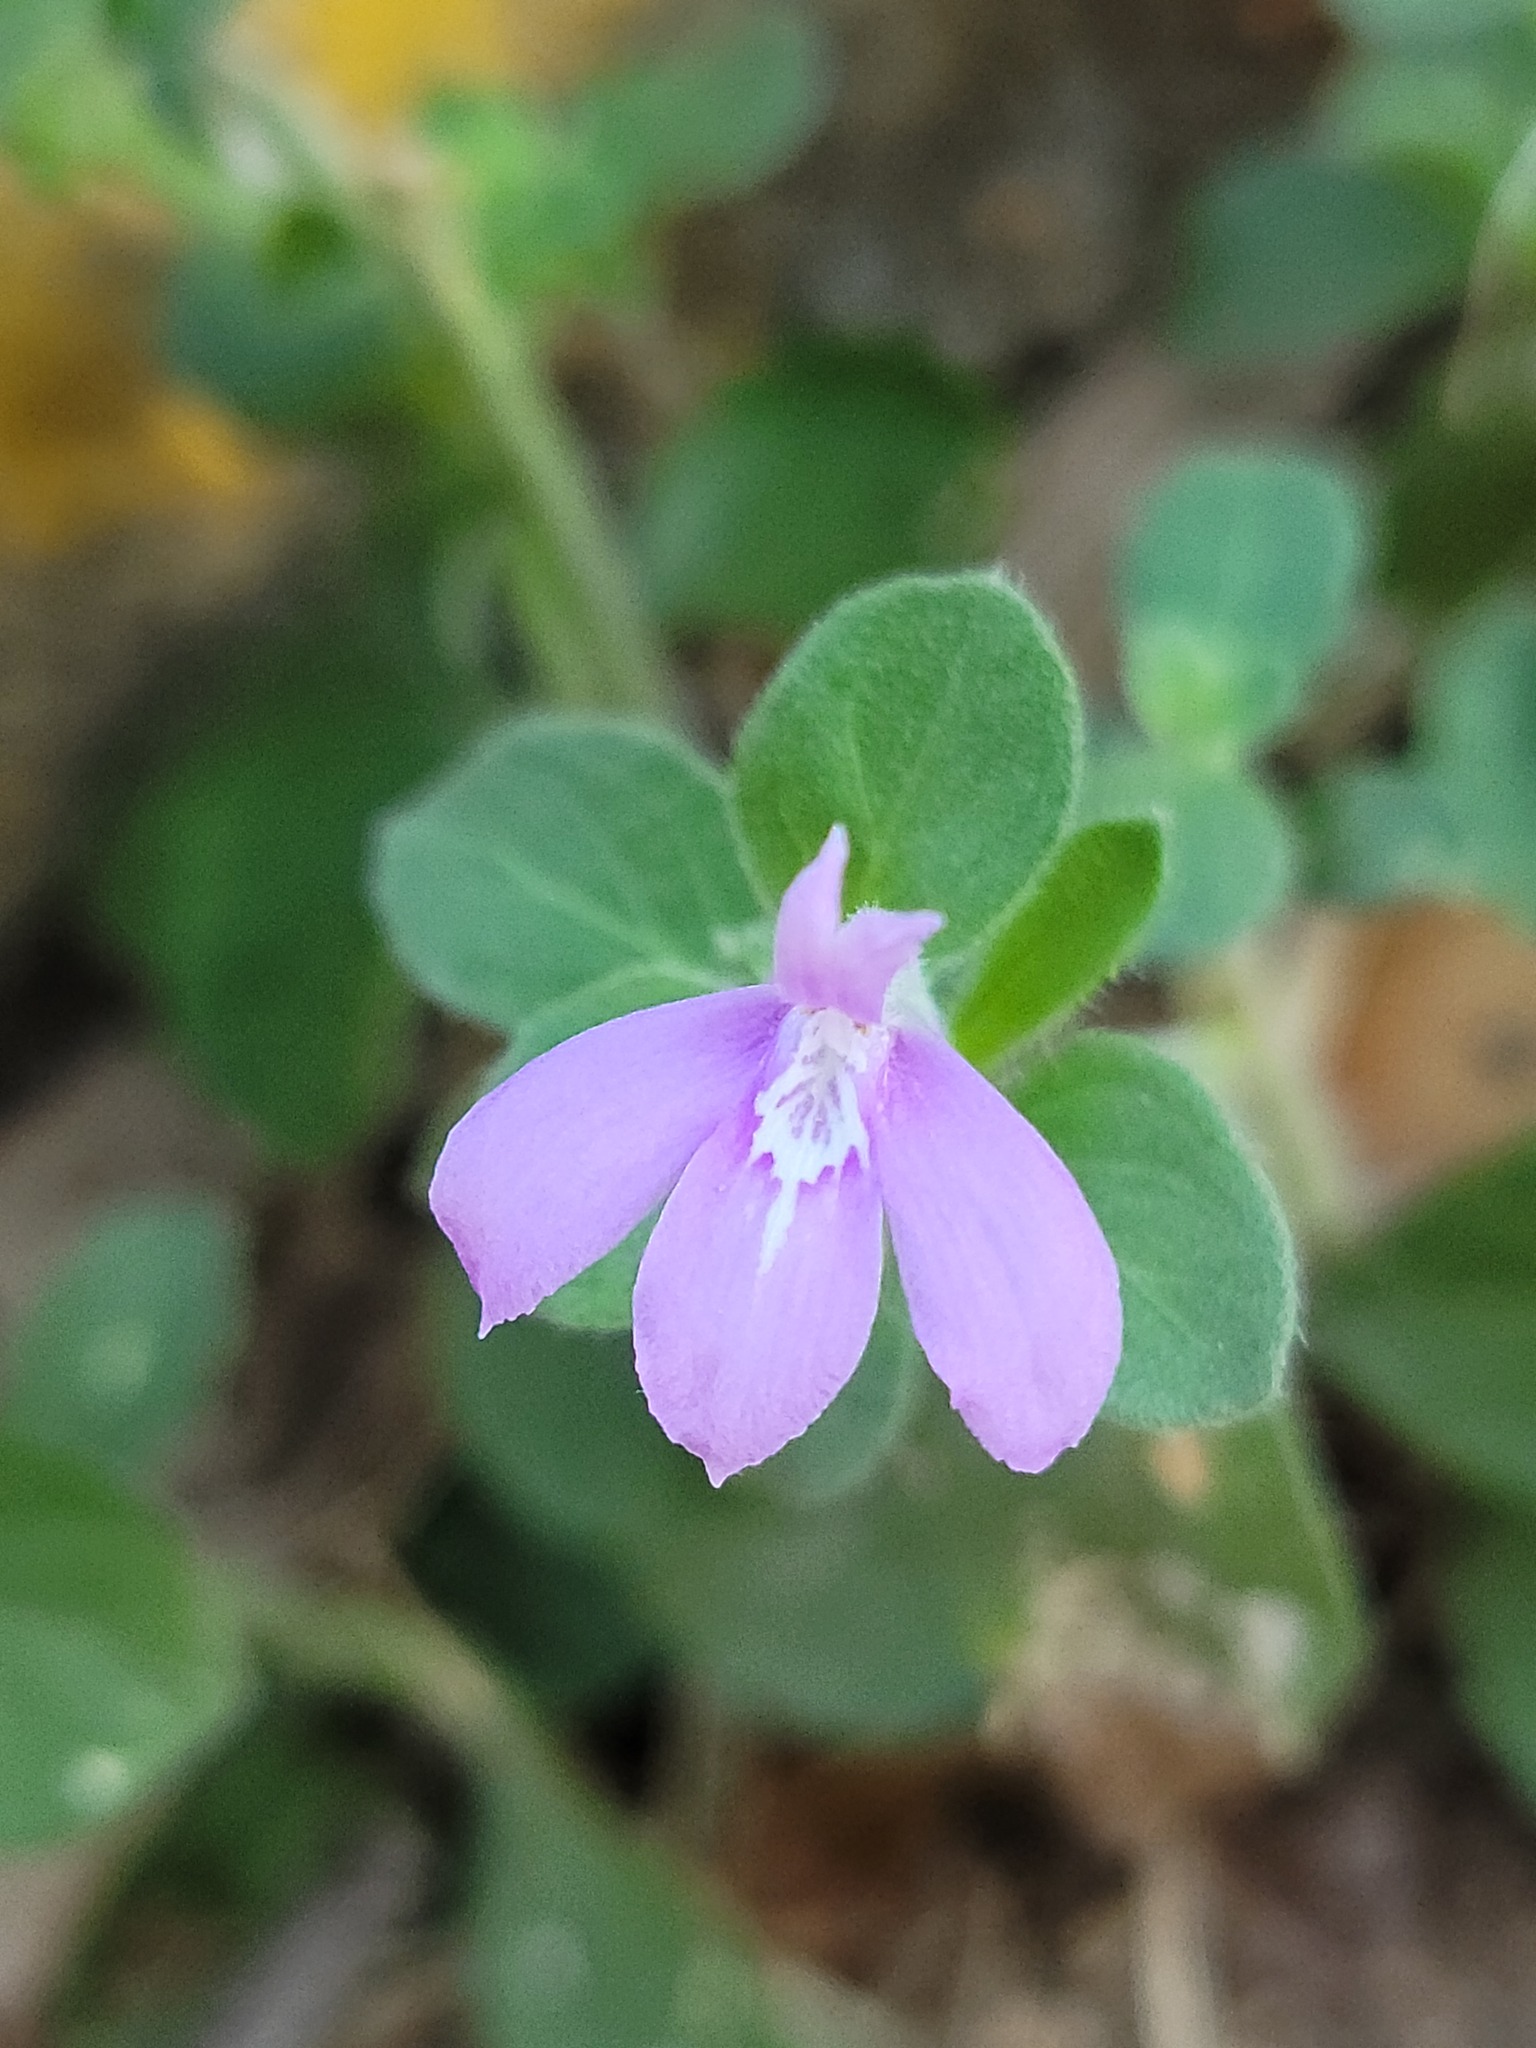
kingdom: Plantae
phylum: Tracheophyta
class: Magnoliopsida
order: Lamiales
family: Acanthaceae
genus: Justicia
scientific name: Justicia pilosella
